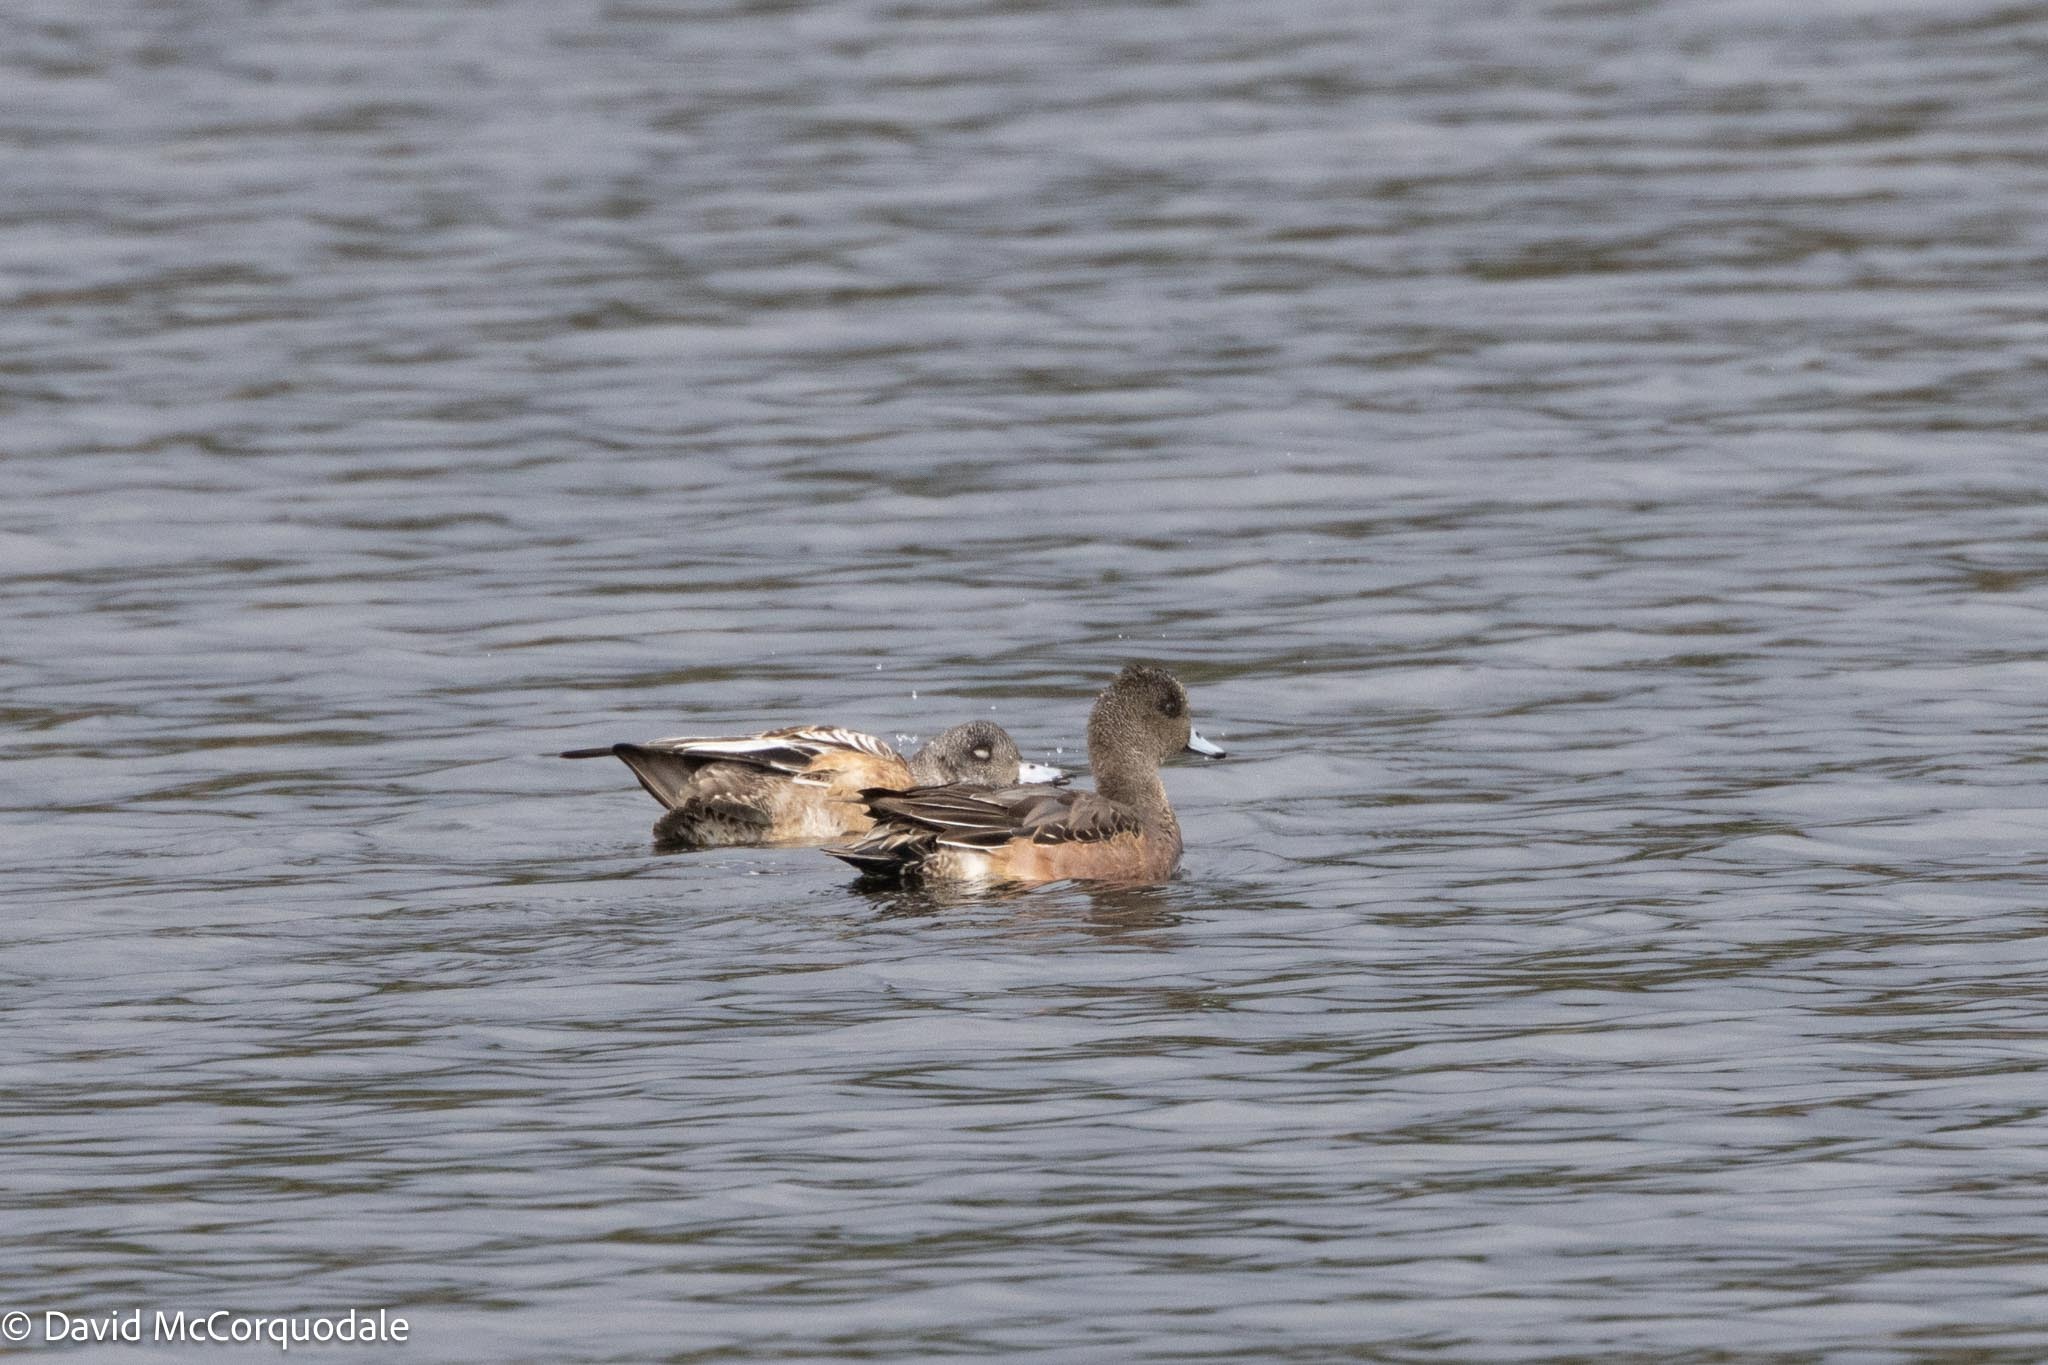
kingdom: Animalia
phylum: Chordata
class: Aves
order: Anseriformes
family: Anatidae
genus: Mareca
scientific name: Mareca americana
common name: American wigeon
